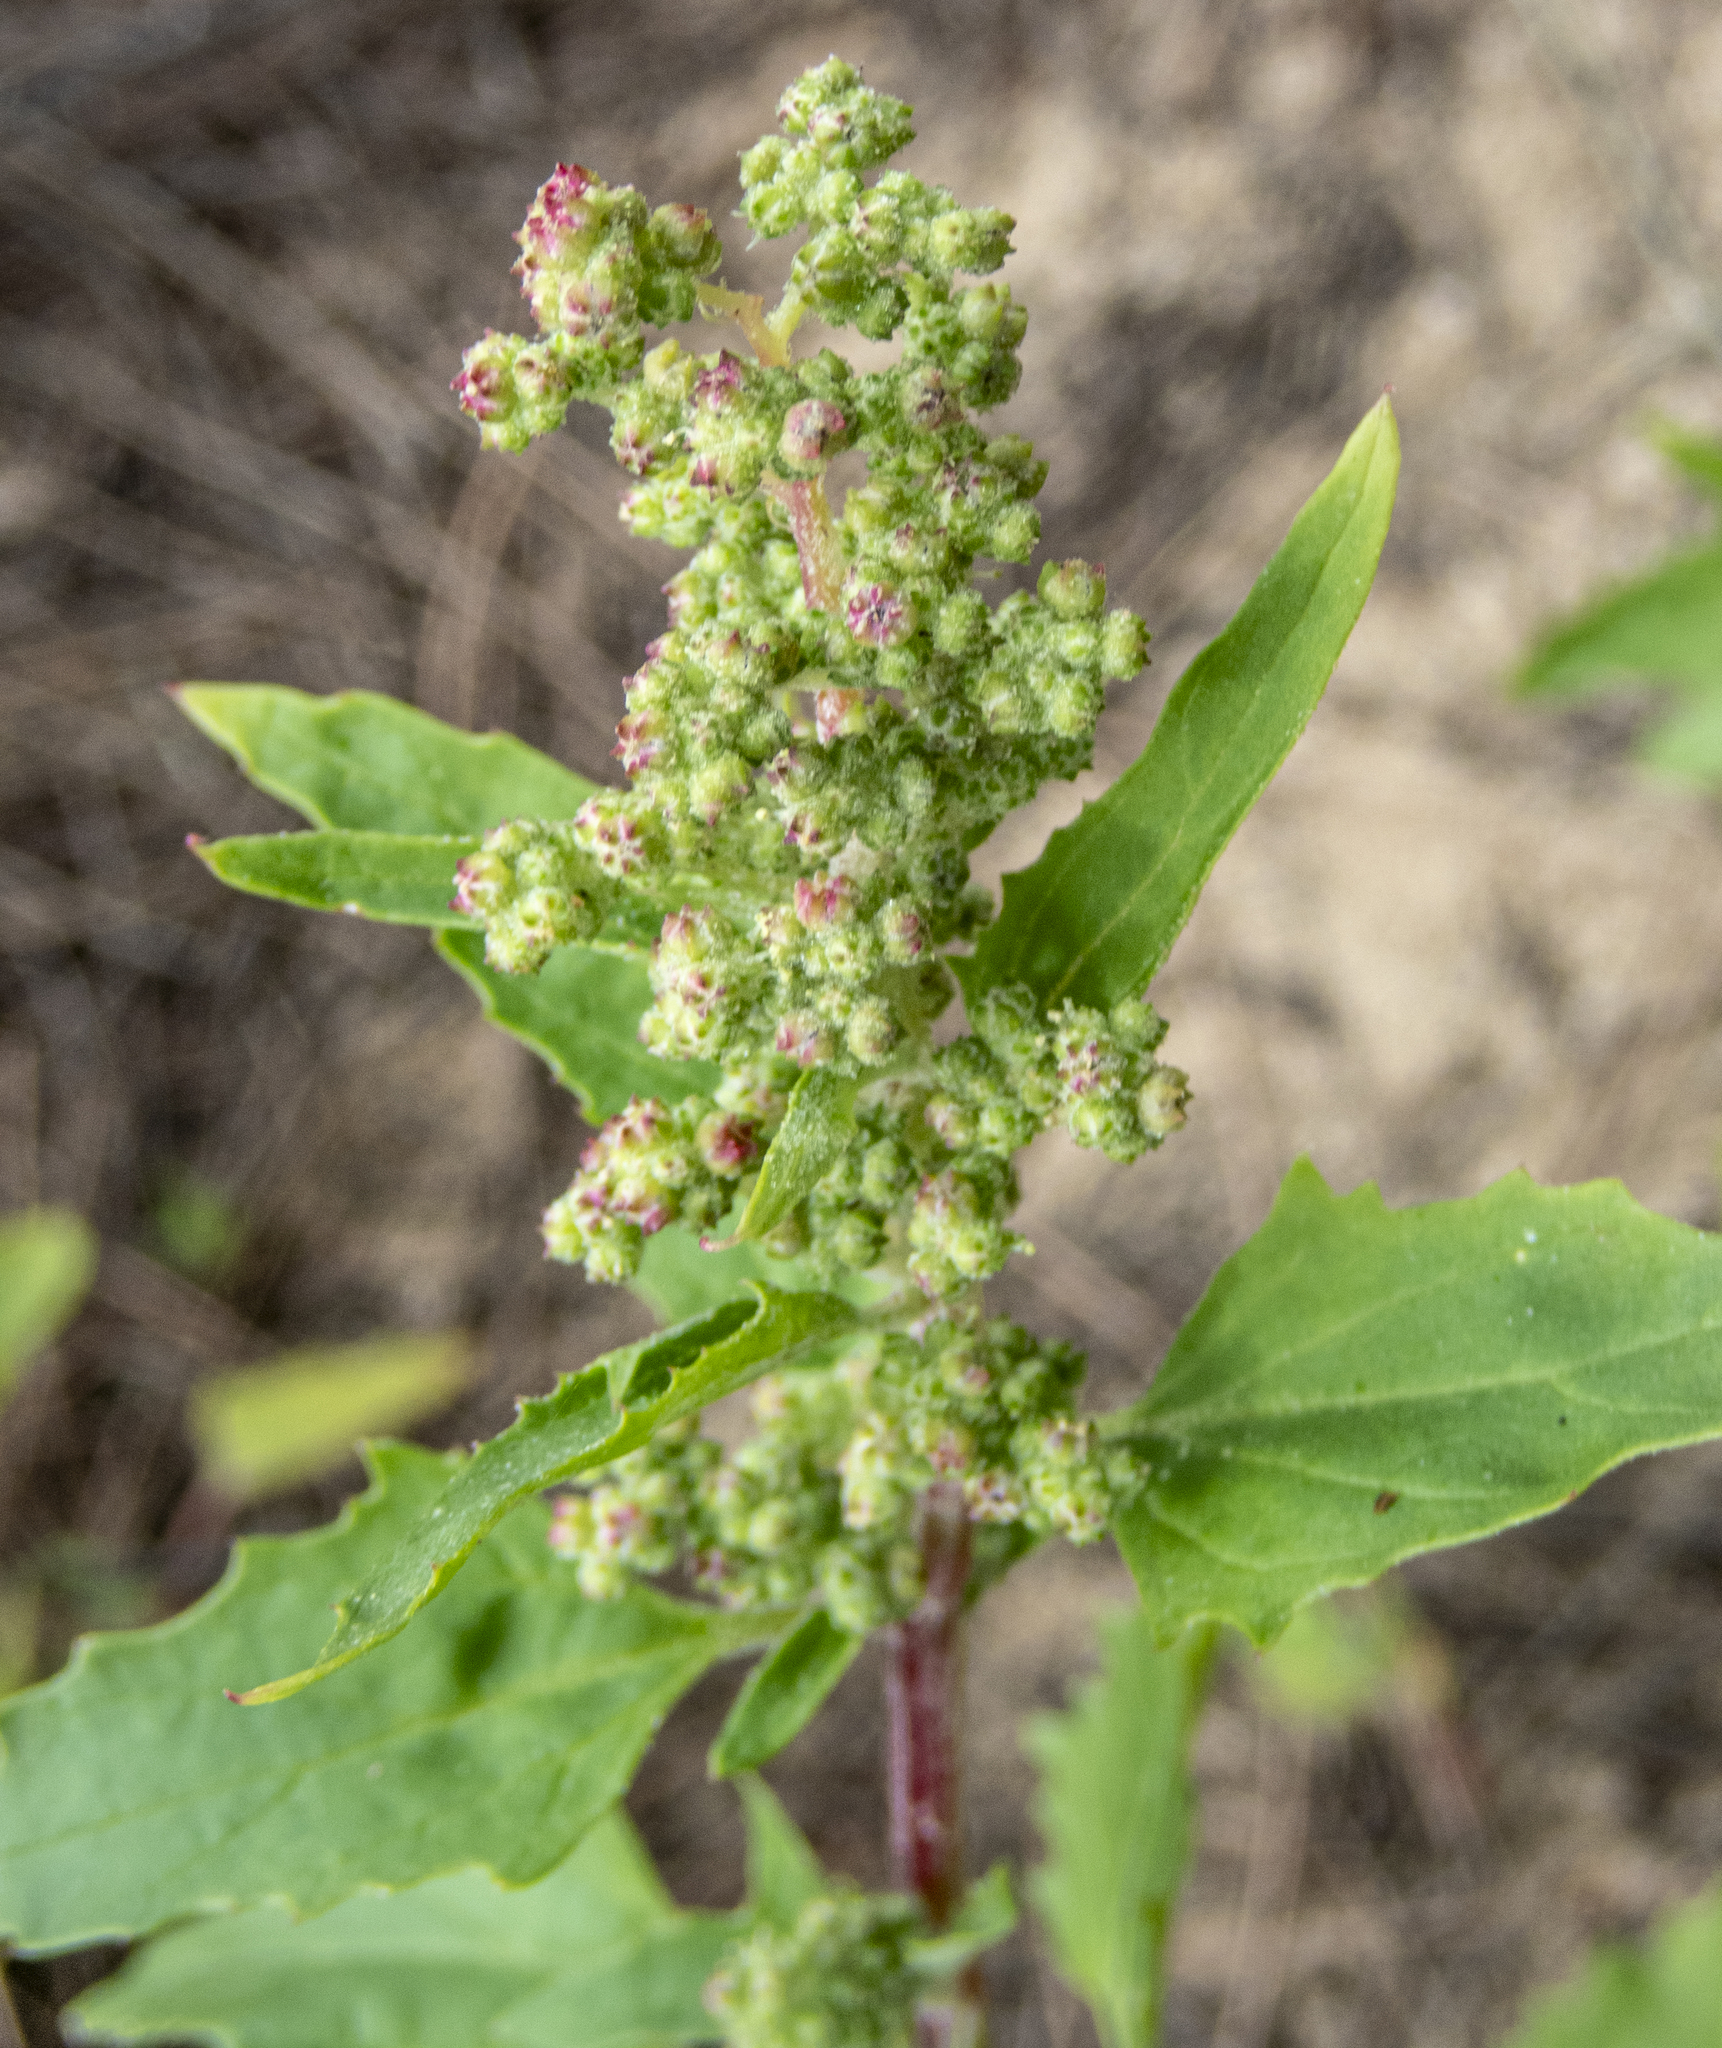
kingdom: Plantae
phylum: Tracheophyta
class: Magnoliopsida
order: Caryophyllales
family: Amaranthaceae
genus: Chenopodiastrum
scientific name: Chenopodiastrum murale
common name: Sowbane
